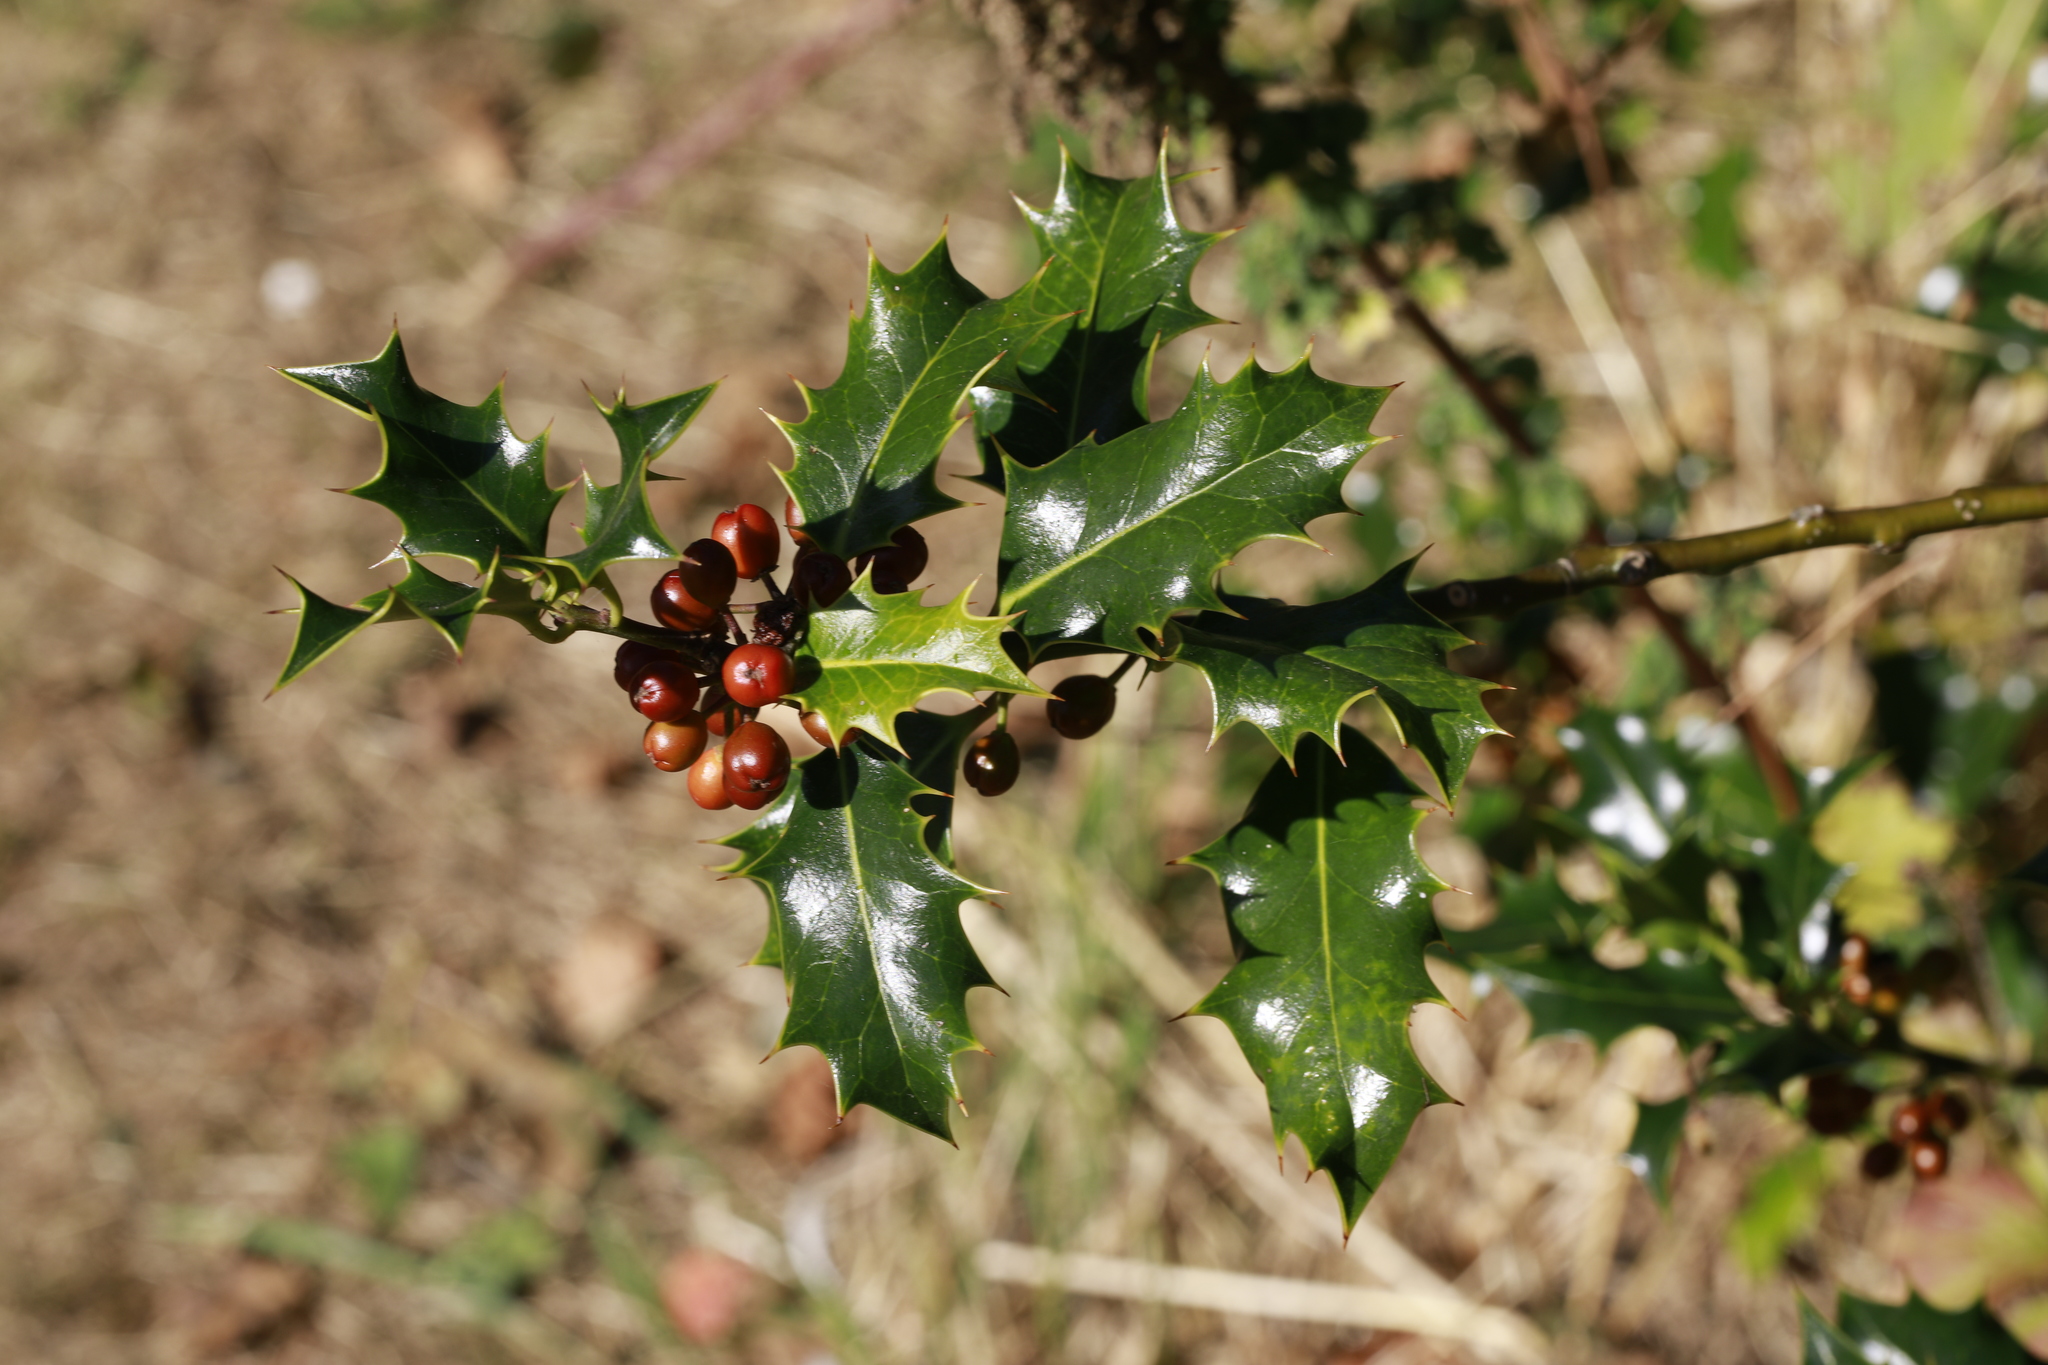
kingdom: Plantae
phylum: Tracheophyta
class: Magnoliopsida
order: Aquifoliales
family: Aquifoliaceae
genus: Ilex
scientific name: Ilex aquifolium
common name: English holly
